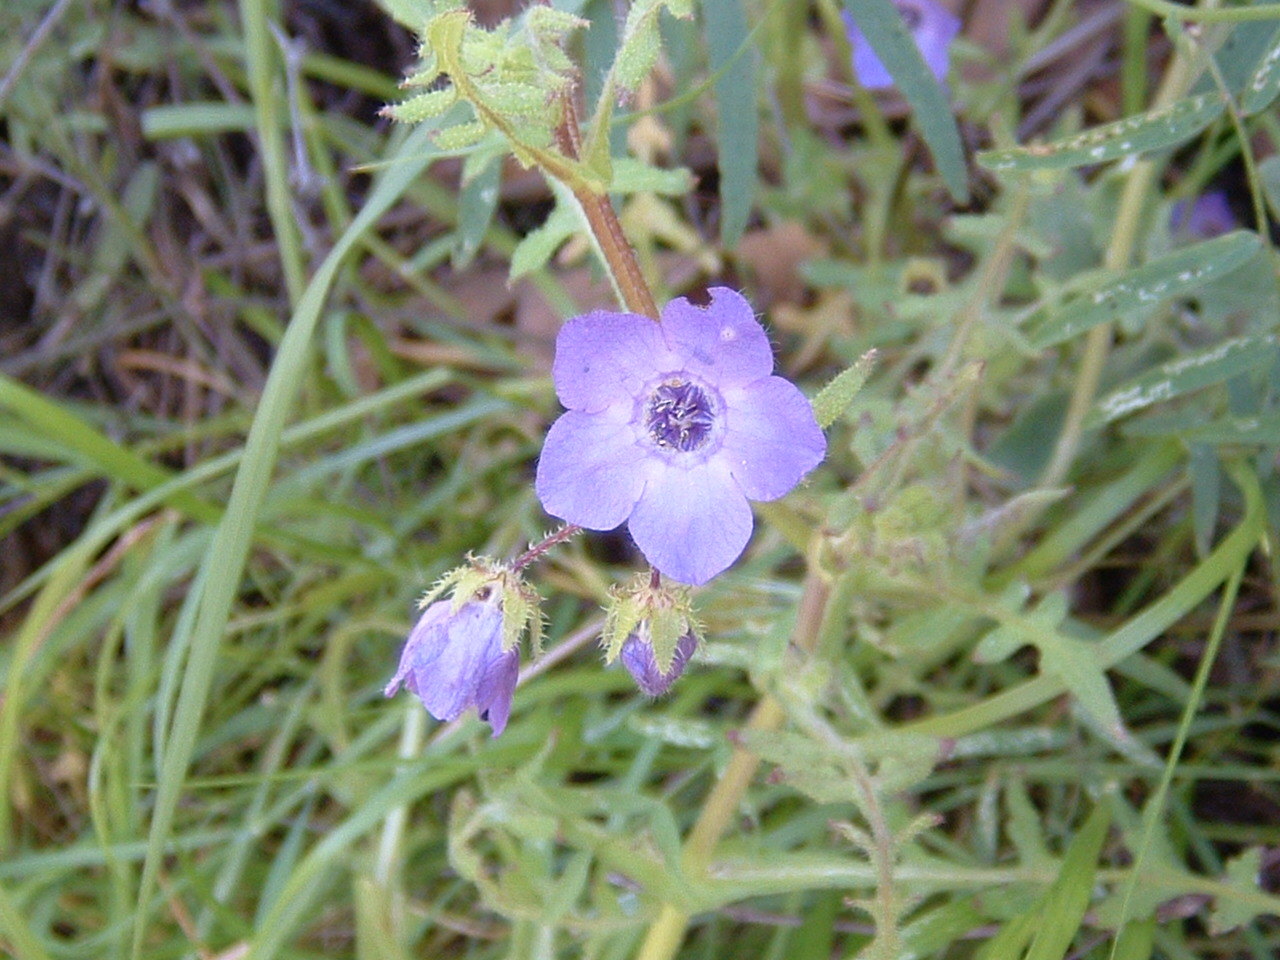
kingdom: Plantae
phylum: Tracheophyta
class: Magnoliopsida
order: Boraginales
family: Hydrophyllaceae
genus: Pholistoma
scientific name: Pholistoma auritum
